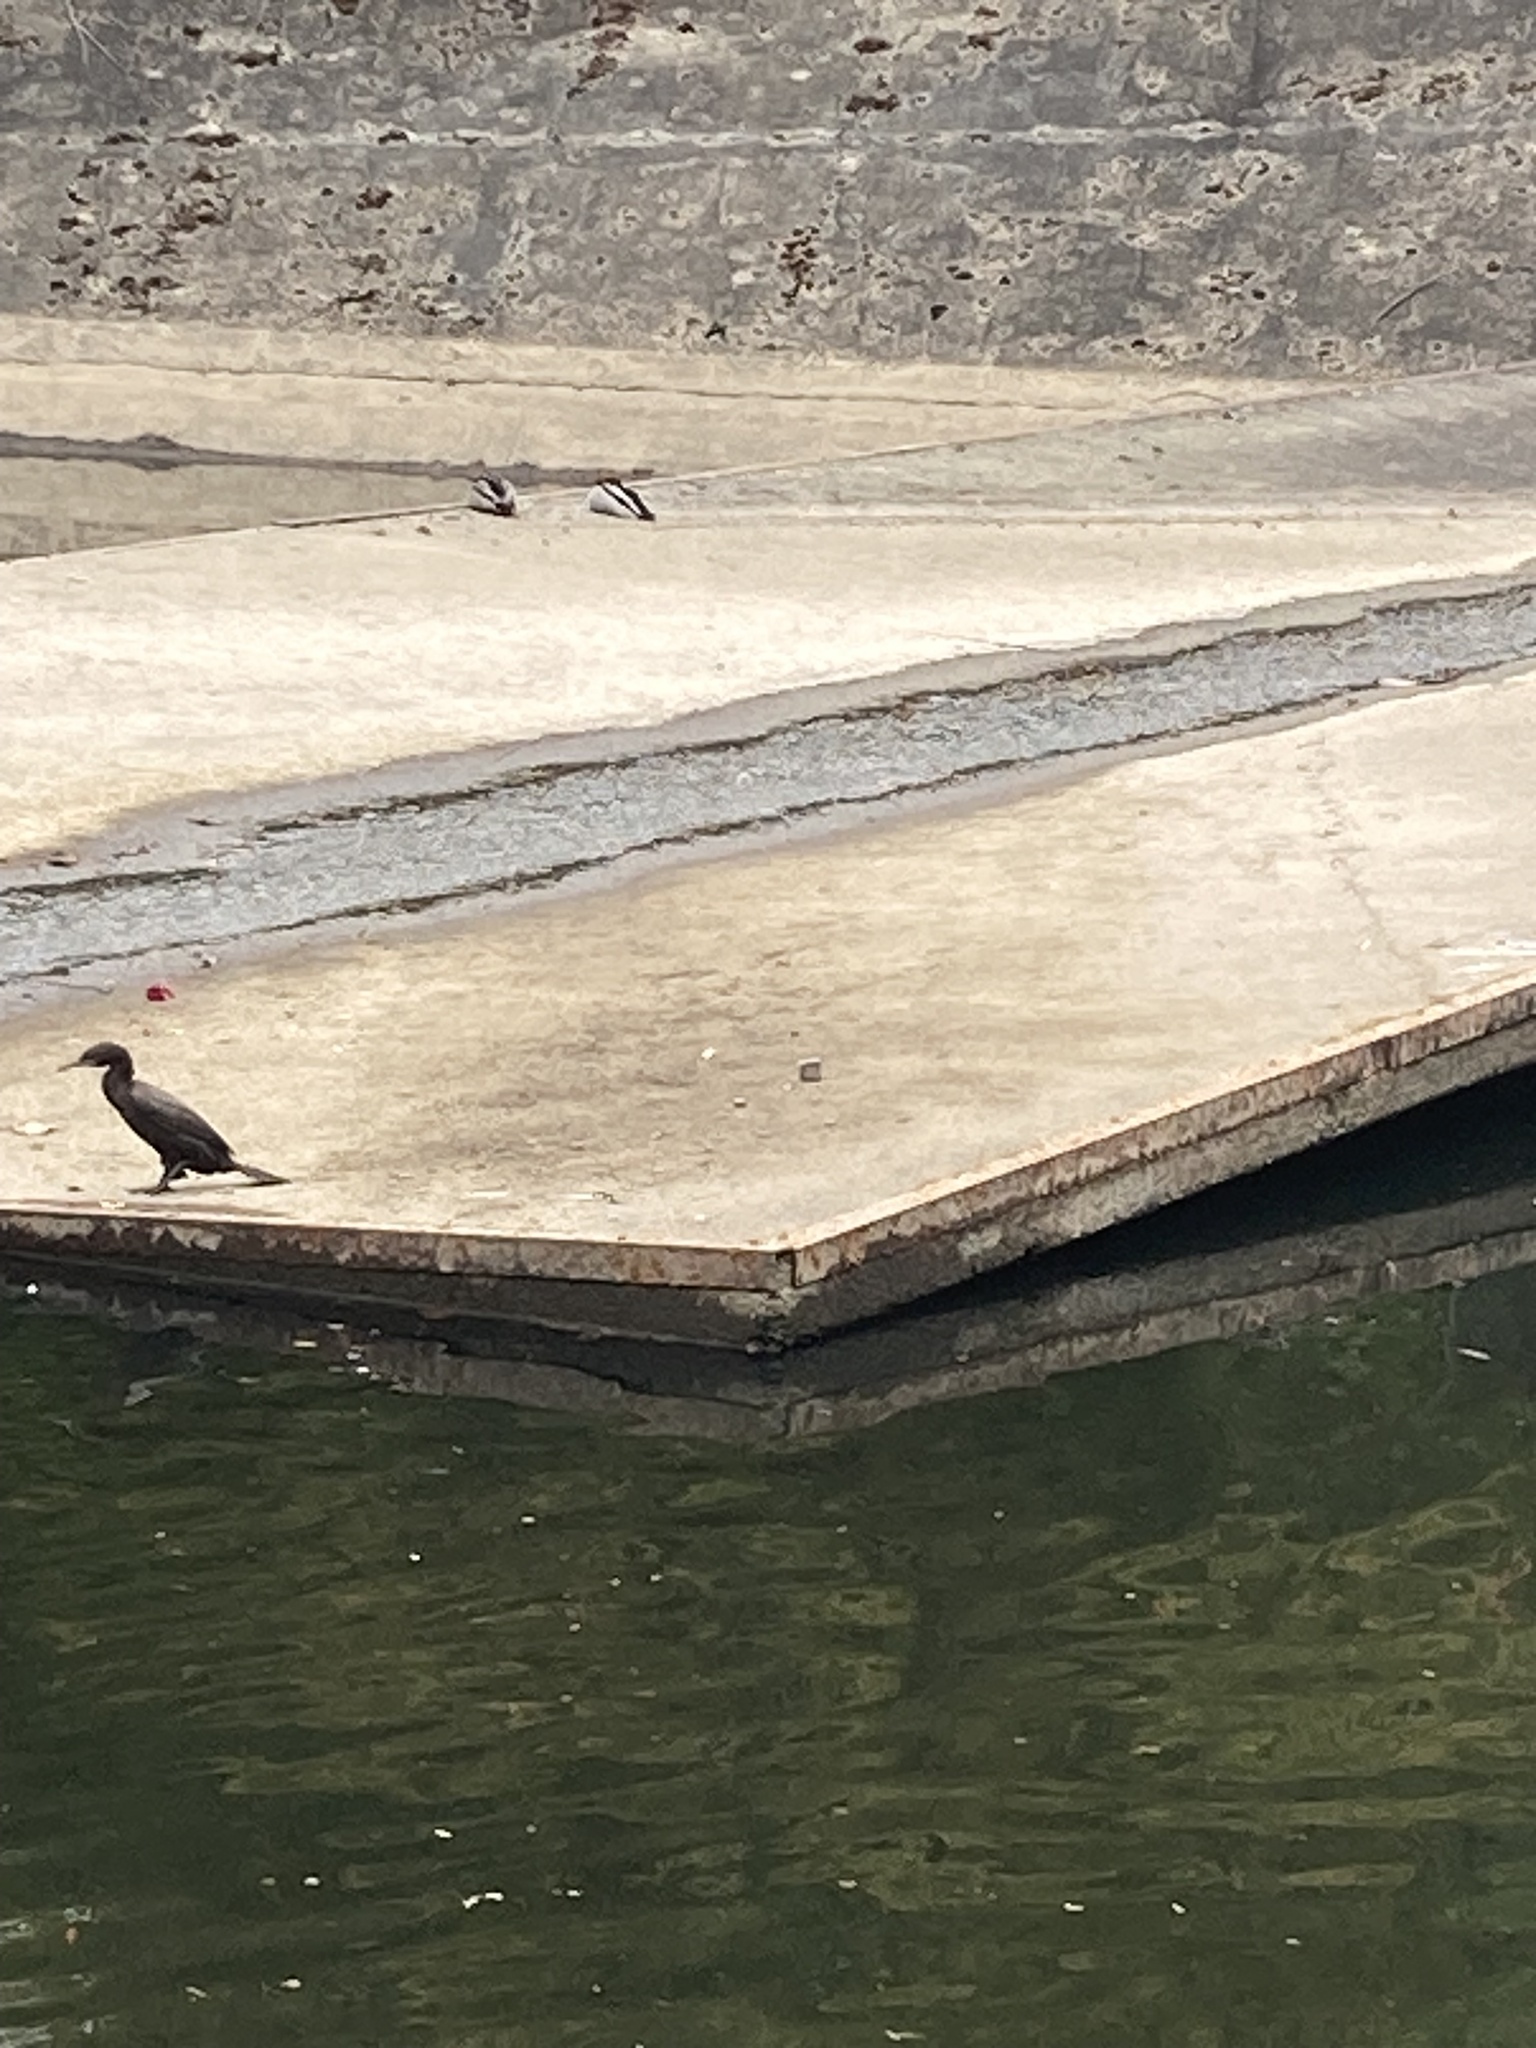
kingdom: Animalia
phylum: Chordata
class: Aves
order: Suliformes
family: Phalacrocoracidae
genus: Phalacrocorax
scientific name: Phalacrocorax sulcirostris
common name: Little black cormorant
